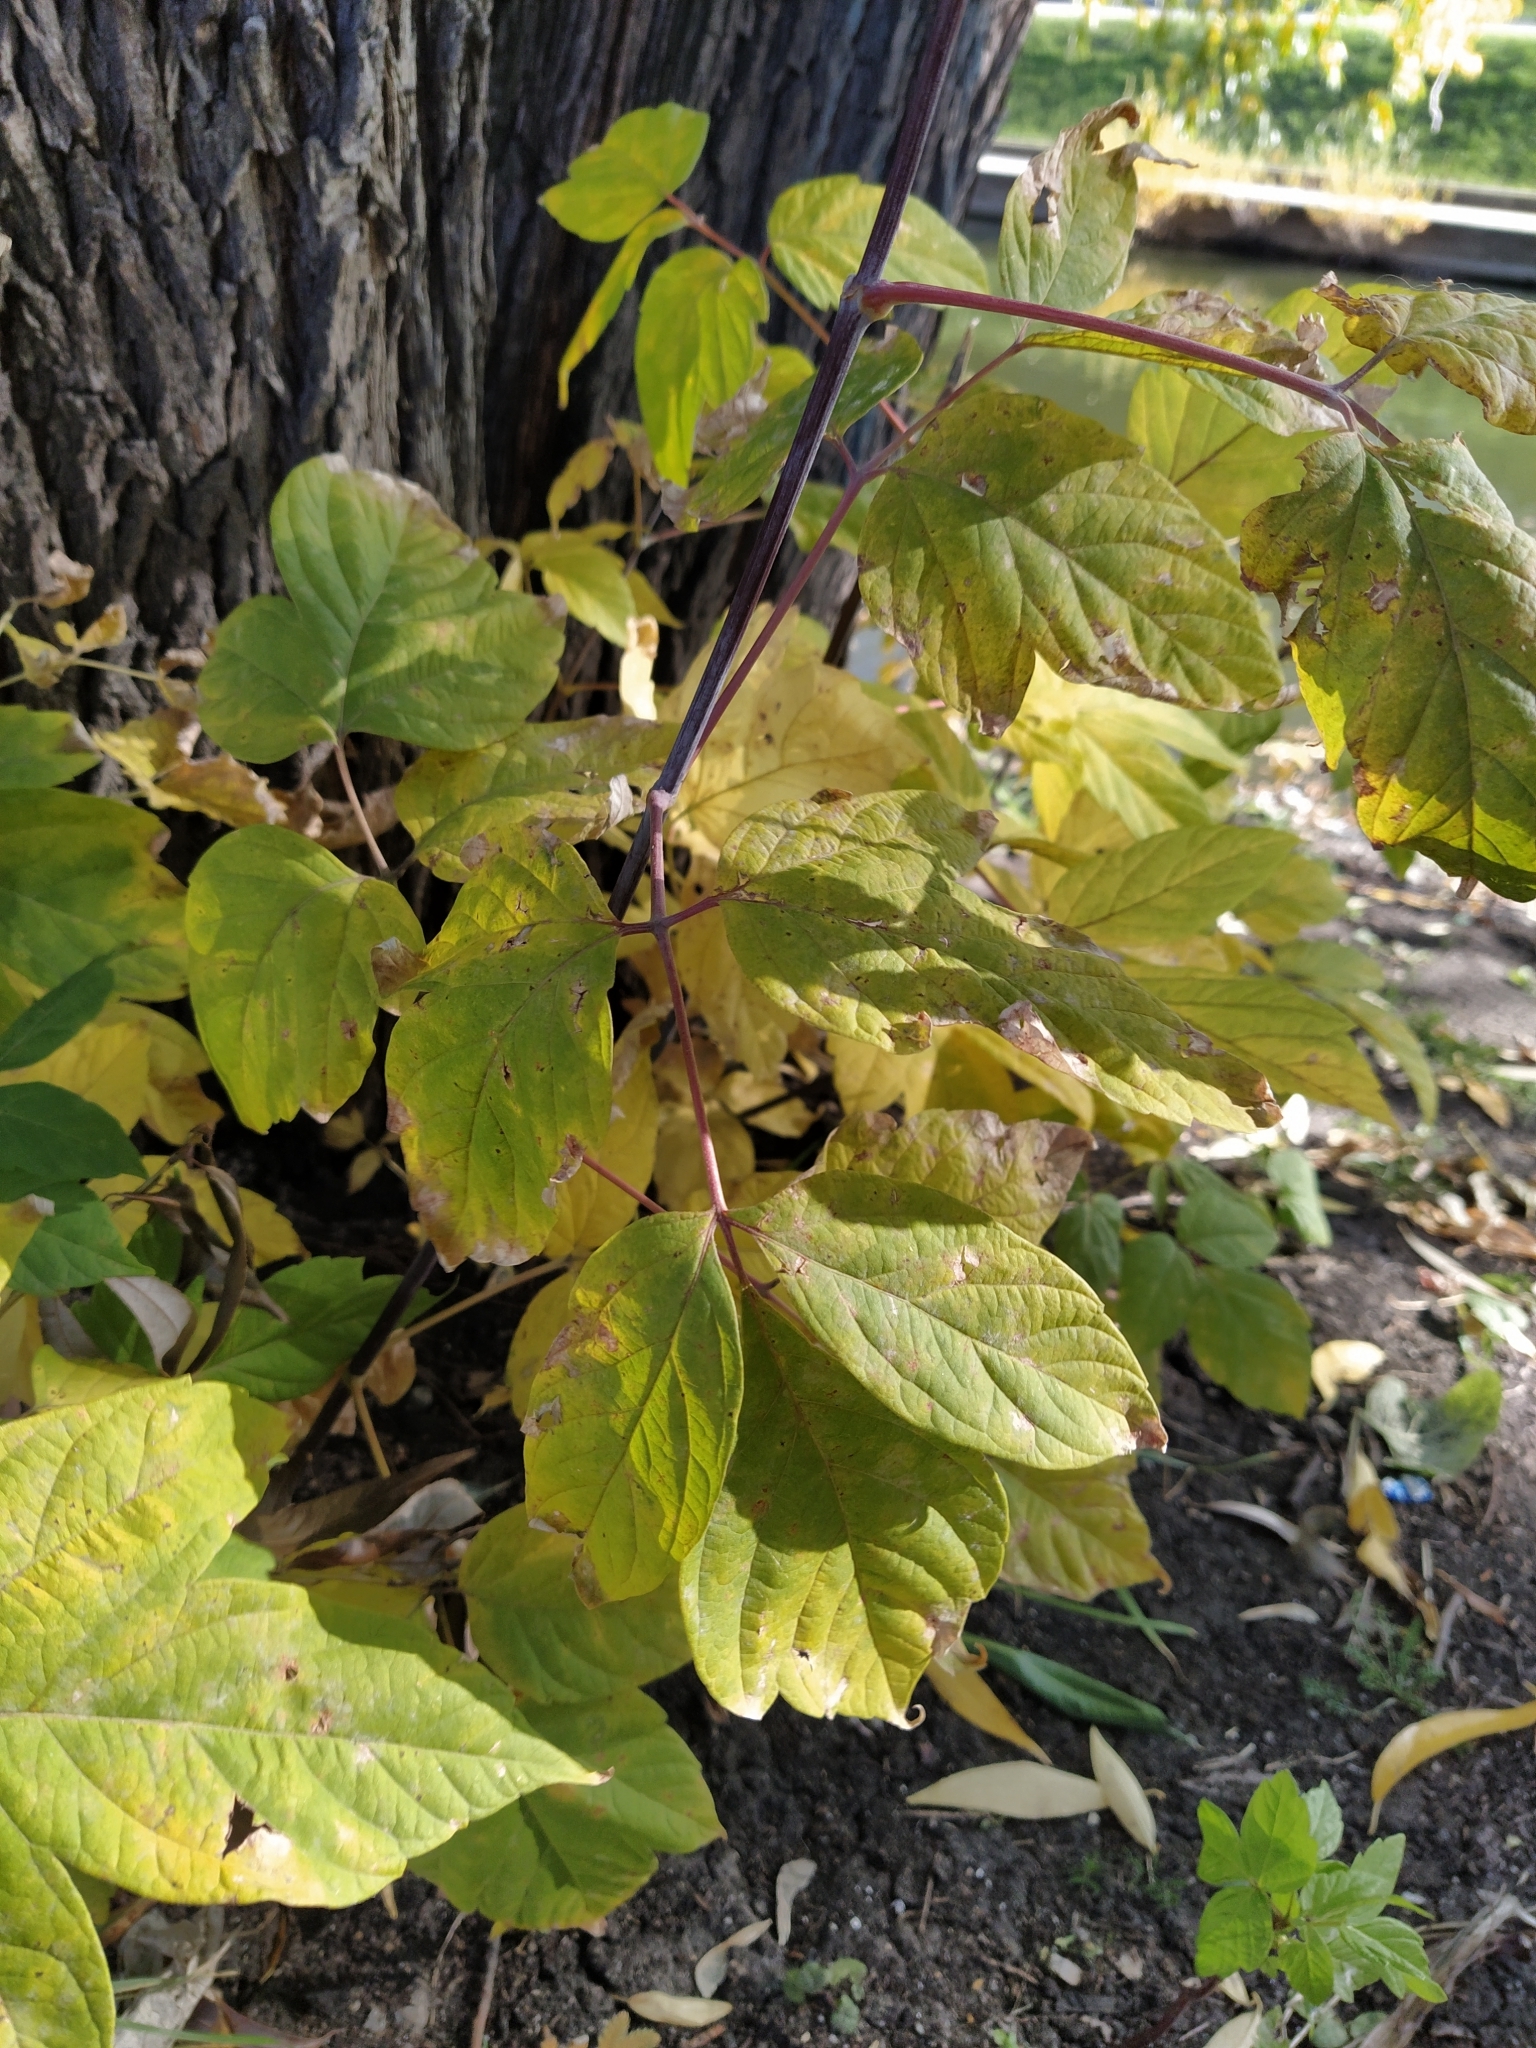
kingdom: Plantae
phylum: Tracheophyta
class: Magnoliopsida
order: Sapindales
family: Sapindaceae
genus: Acer
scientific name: Acer negundo
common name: Ashleaf maple
